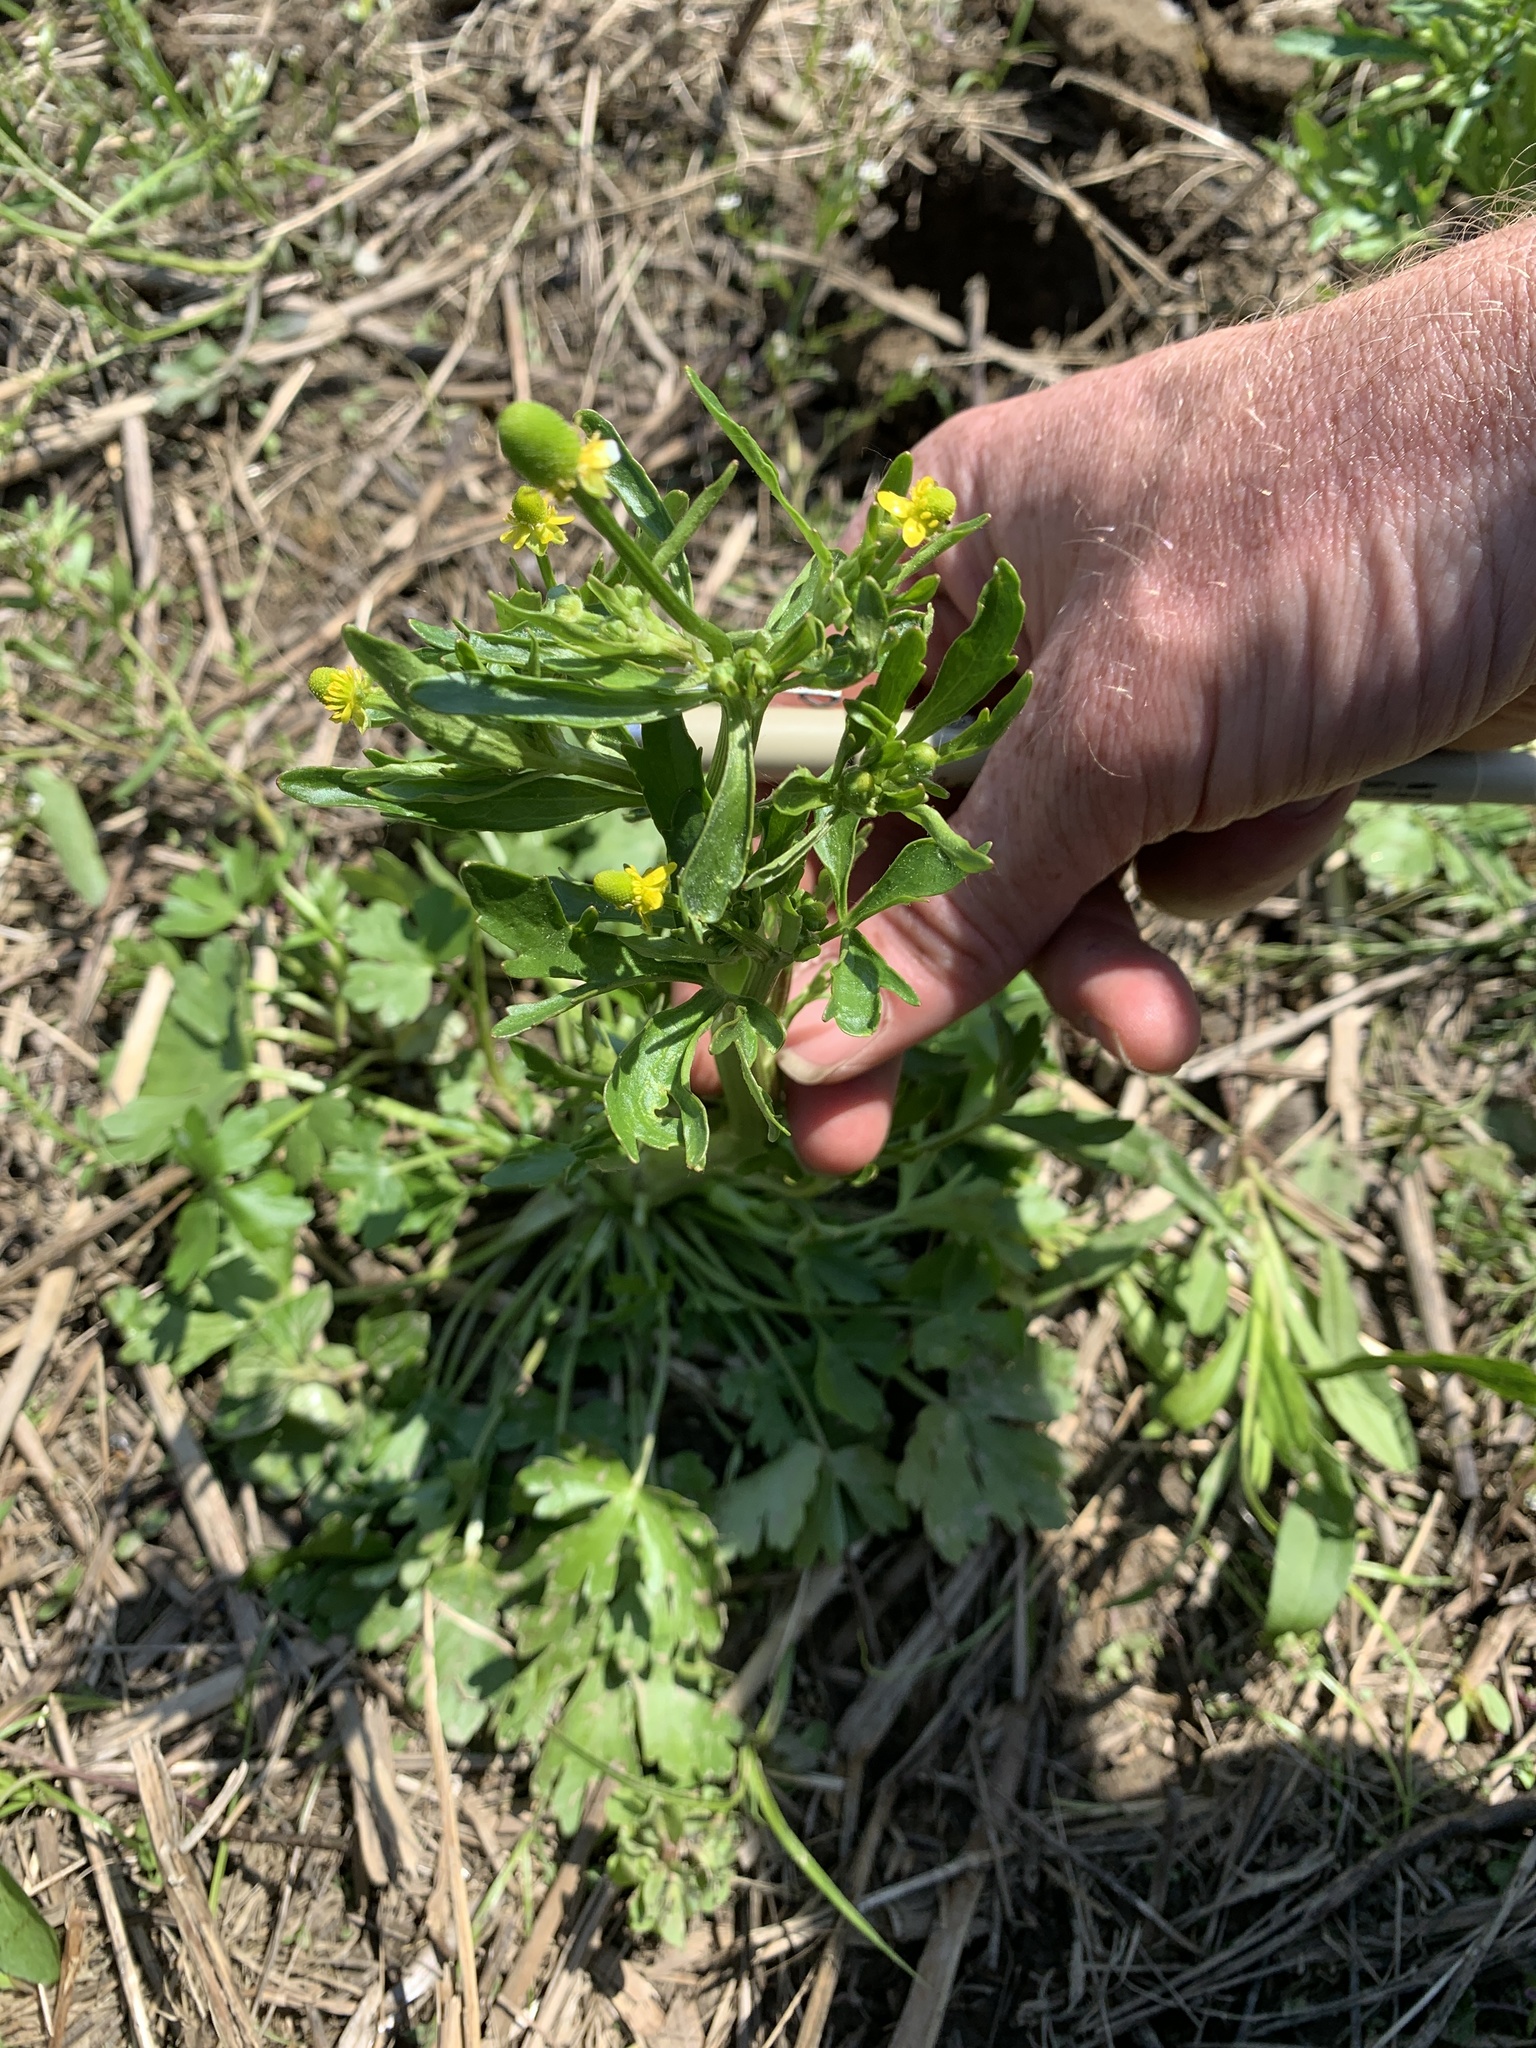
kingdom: Plantae
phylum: Tracheophyta
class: Magnoliopsida
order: Ranunculales
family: Ranunculaceae
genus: Ranunculus
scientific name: Ranunculus sceleratus
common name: Celery-leaved buttercup
